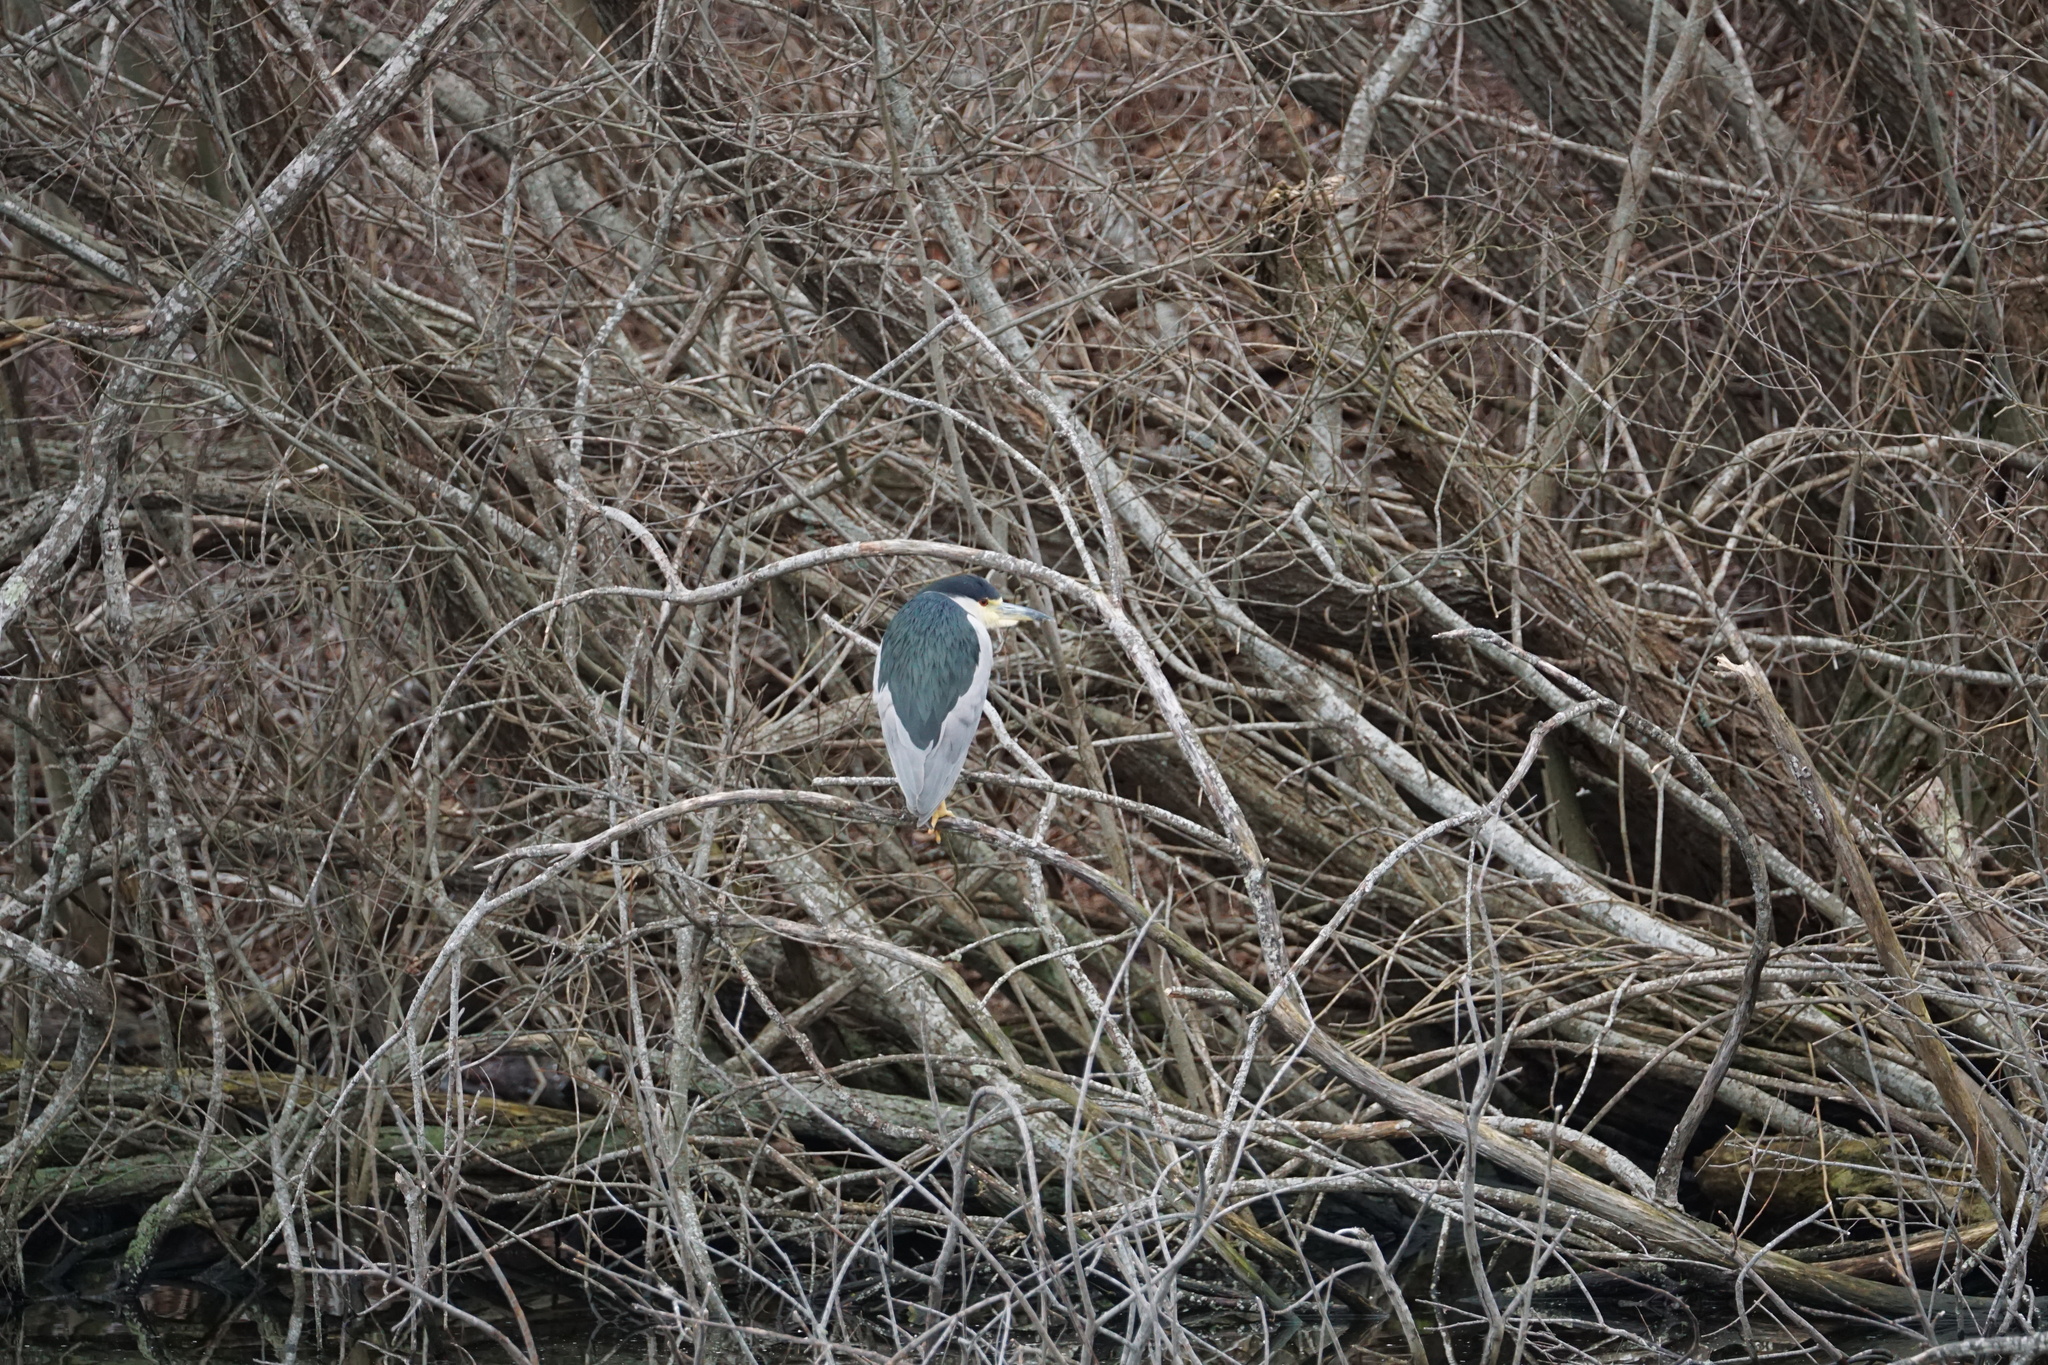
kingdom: Animalia
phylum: Chordata
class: Aves
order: Pelecaniformes
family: Ardeidae
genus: Nycticorax
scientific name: Nycticorax nycticorax
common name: Black-crowned night heron
